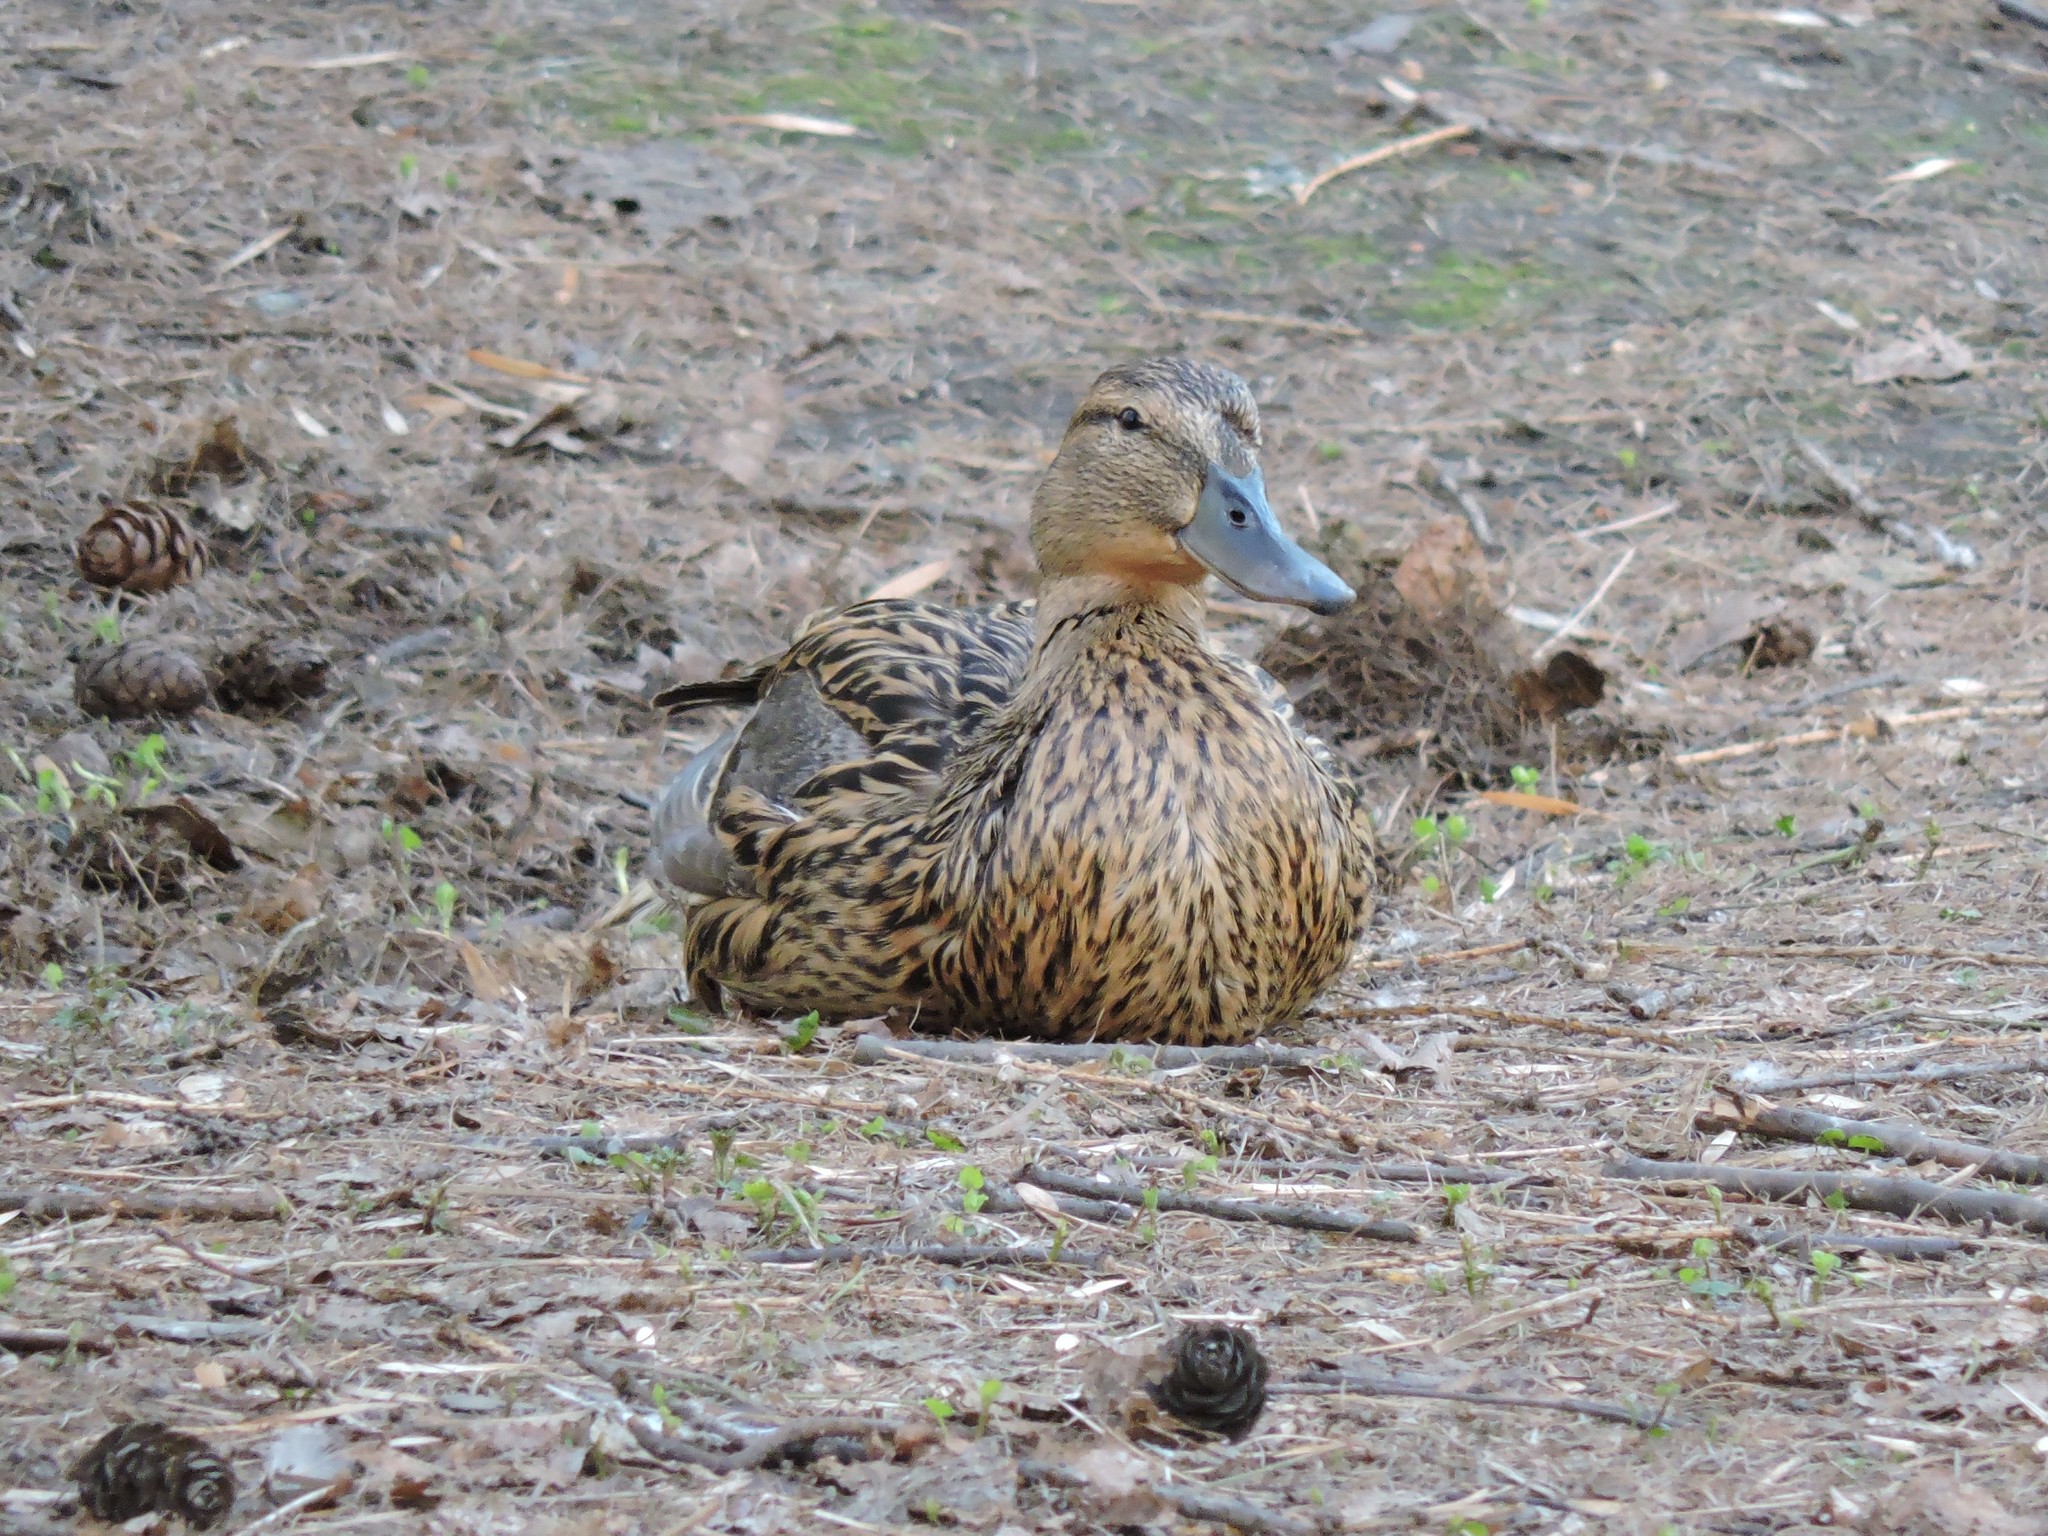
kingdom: Animalia
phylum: Chordata
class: Aves
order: Anseriformes
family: Anatidae
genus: Anas
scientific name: Anas platyrhynchos
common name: Mallard
